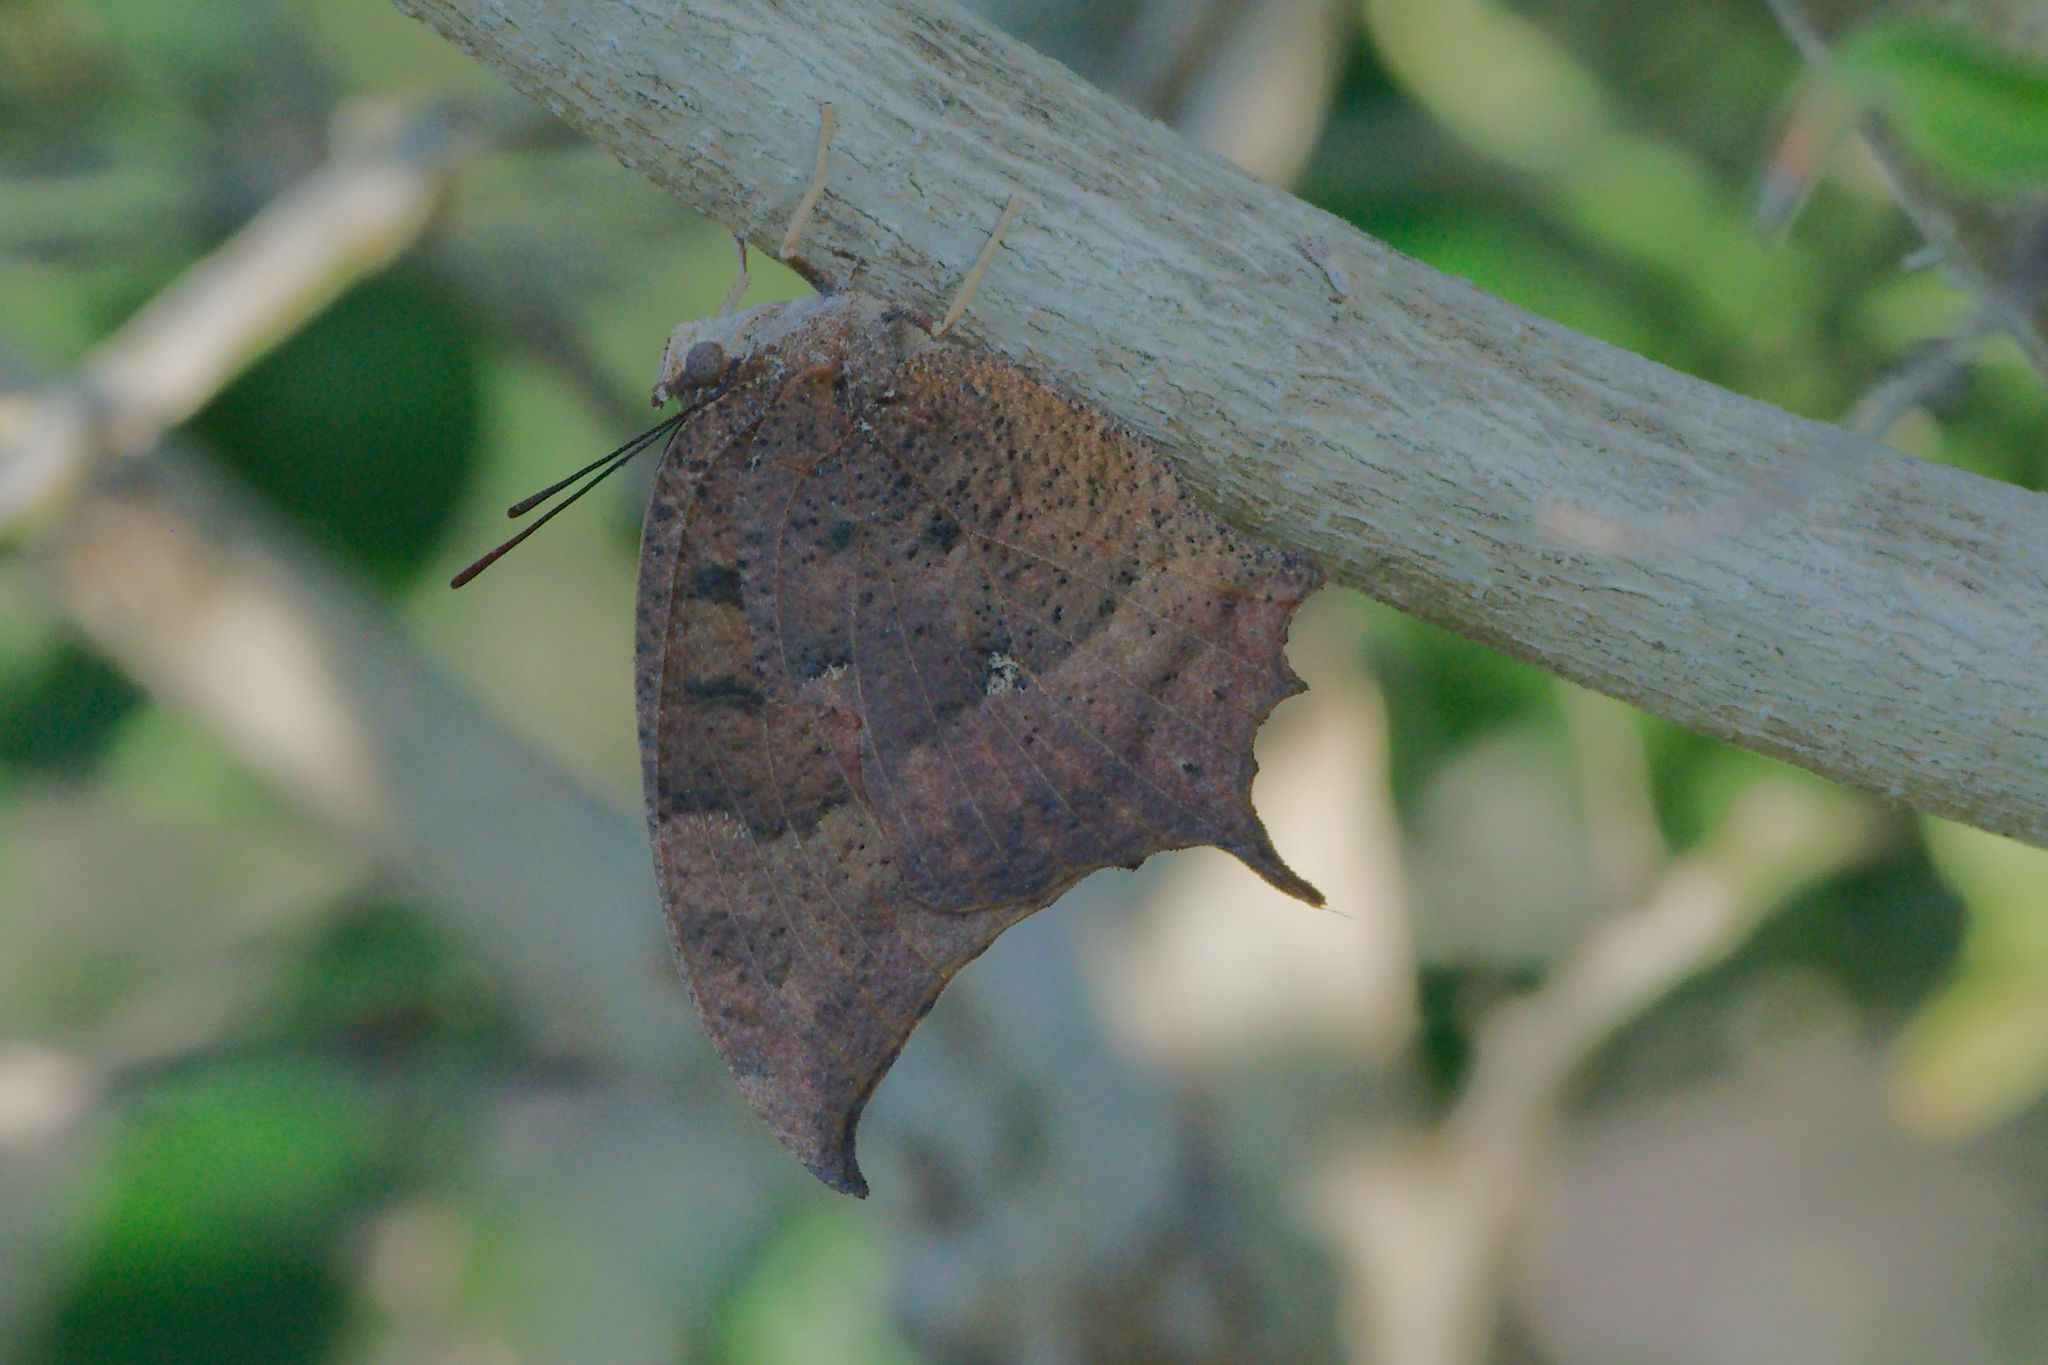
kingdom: Animalia
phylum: Arthropoda
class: Insecta
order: Lepidoptera
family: Nymphalidae
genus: Anaea
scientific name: Anaea aidea
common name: Tropical leafwing
